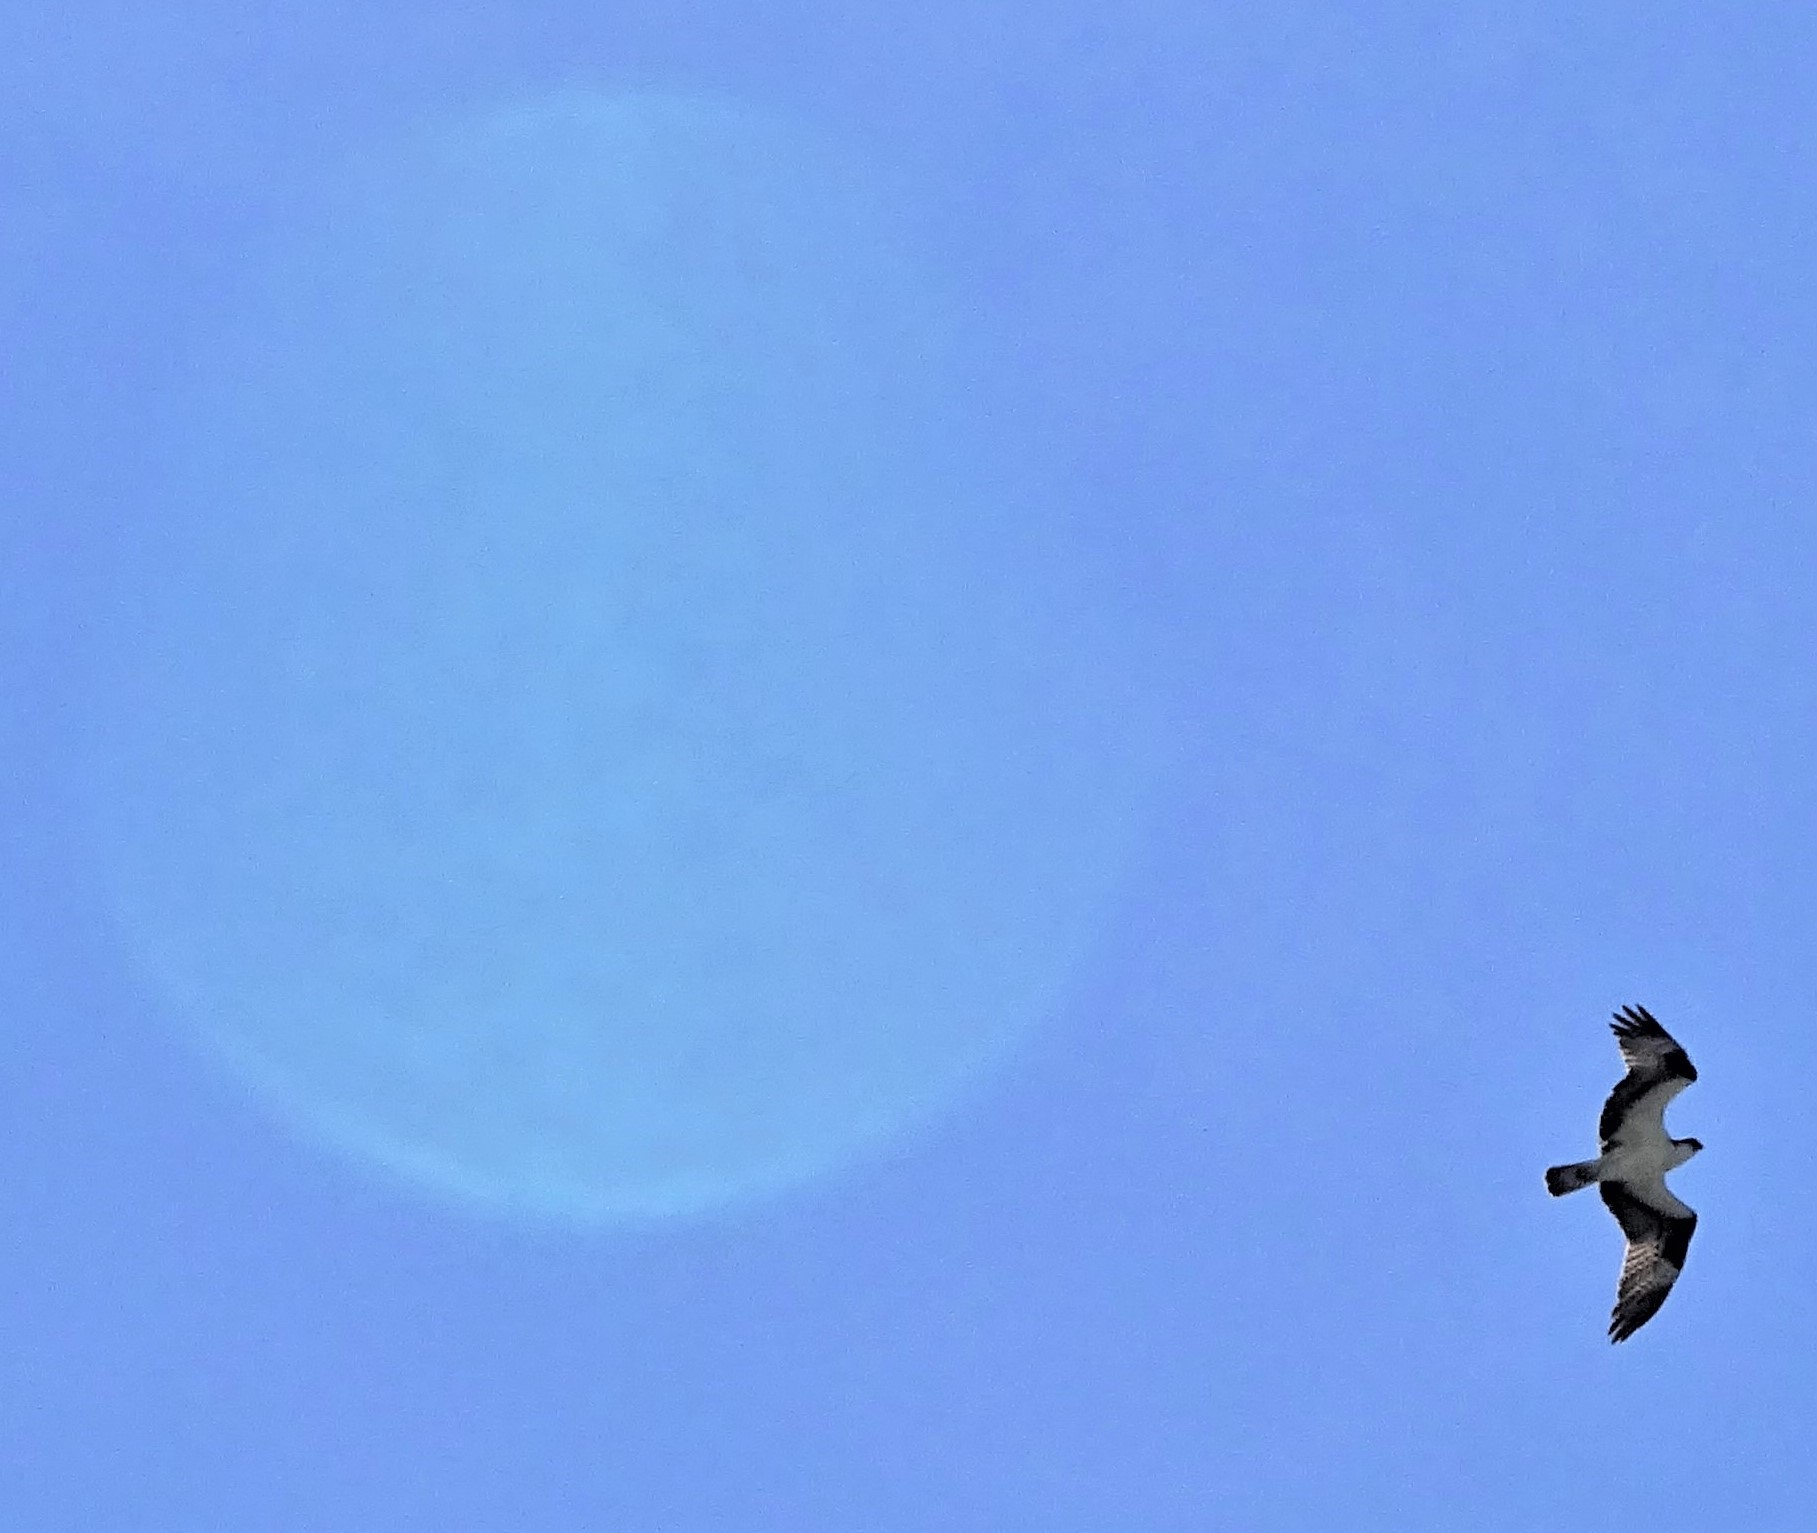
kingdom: Animalia
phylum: Chordata
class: Aves
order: Accipitriformes
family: Pandionidae
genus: Pandion
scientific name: Pandion haliaetus
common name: Osprey
